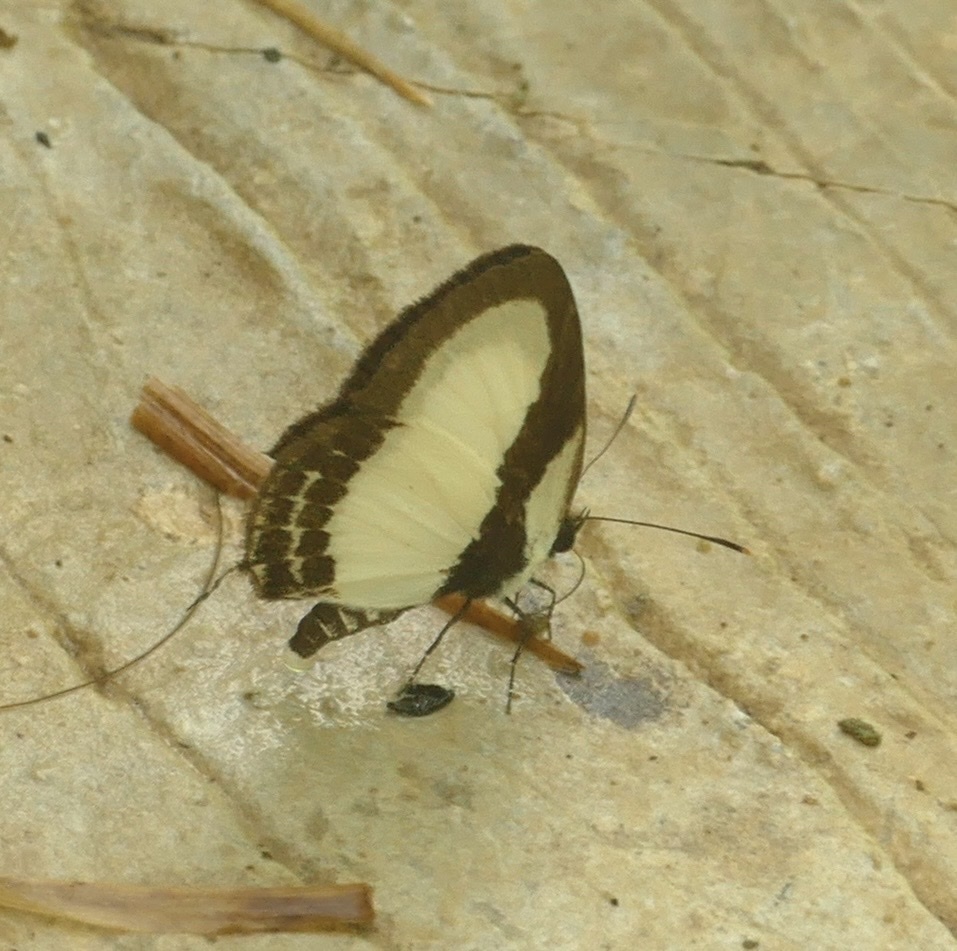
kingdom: Animalia
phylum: Arthropoda
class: Insecta
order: Lepidoptera
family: Lycaenidae
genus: Caleta
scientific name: Caleta
